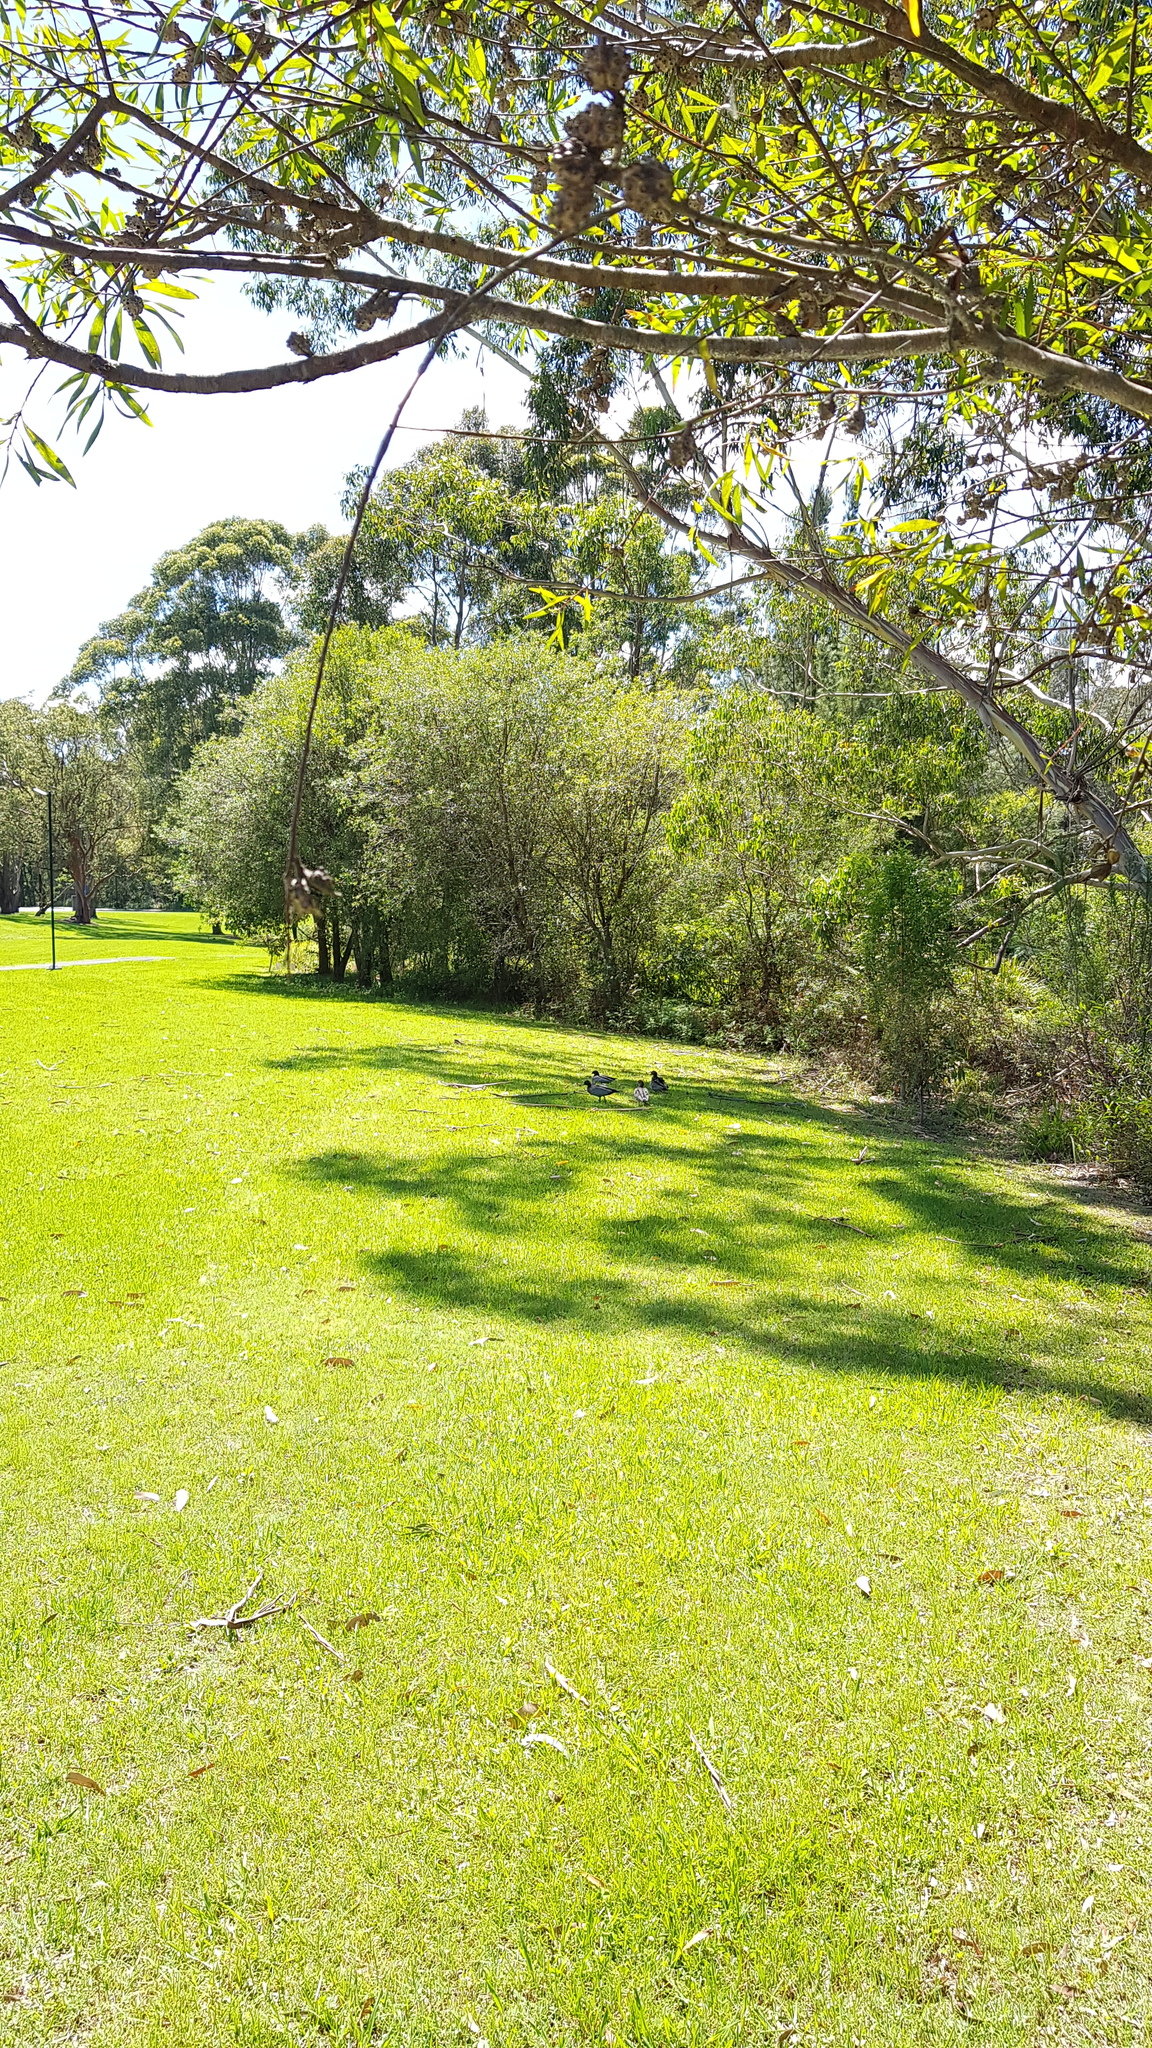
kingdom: Animalia
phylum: Chordata
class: Aves
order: Anseriformes
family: Anatidae
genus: Chenonetta
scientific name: Chenonetta jubata
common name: Maned duck
